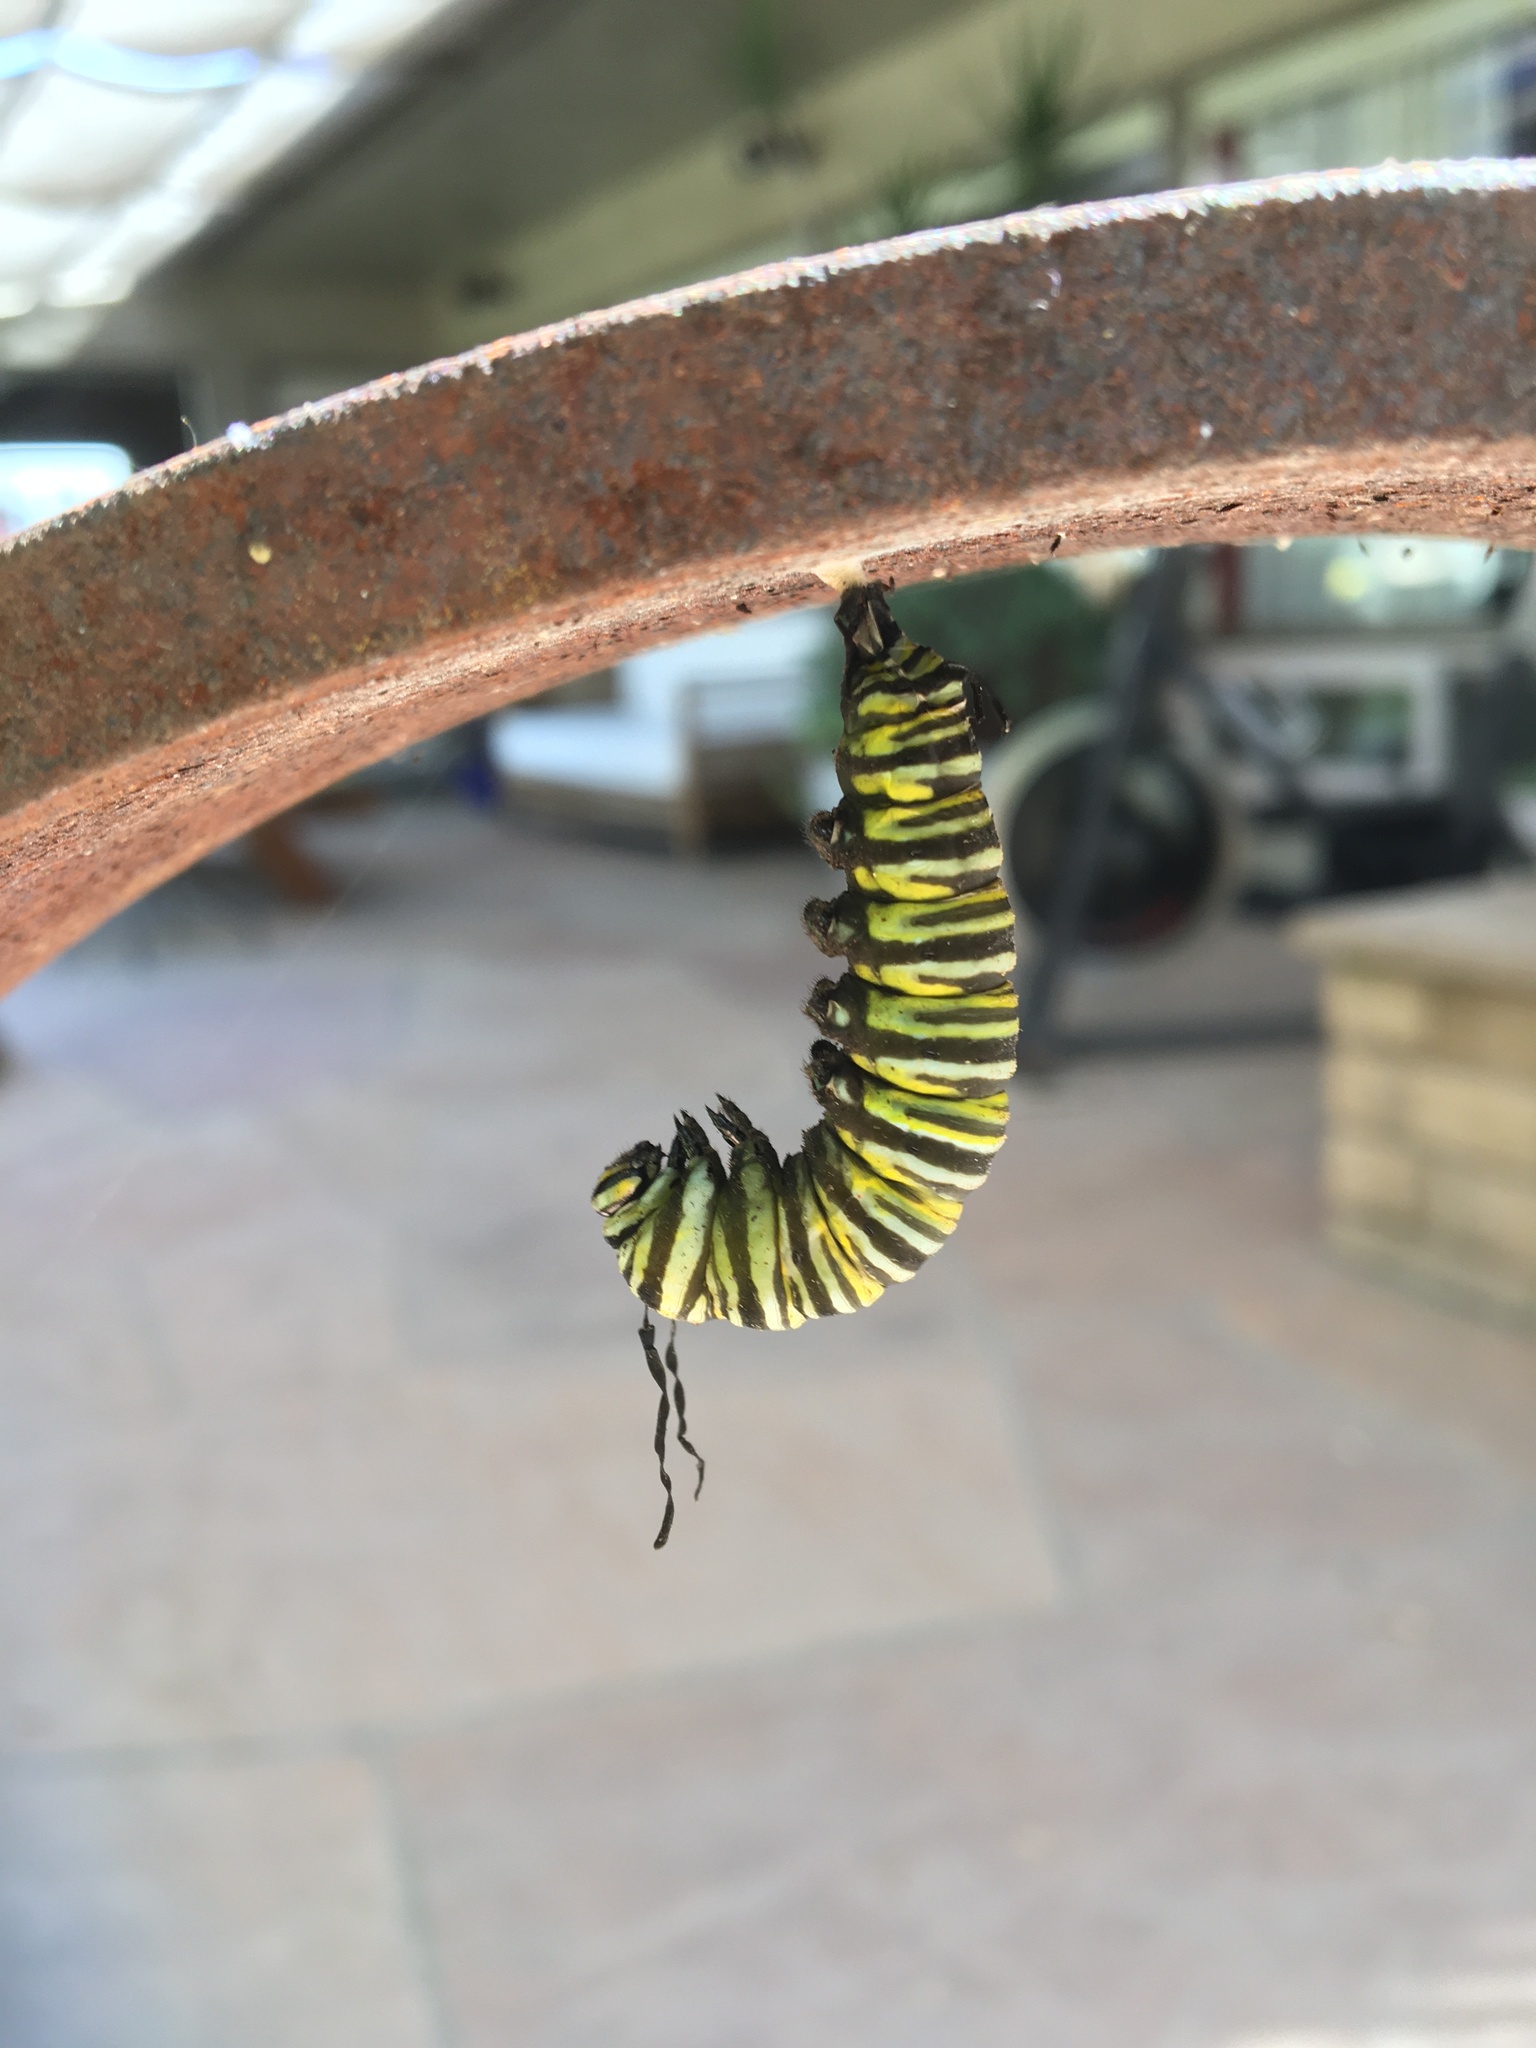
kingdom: Animalia
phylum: Arthropoda
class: Insecta
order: Lepidoptera
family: Nymphalidae
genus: Danaus
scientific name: Danaus plexippus
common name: Monarch
